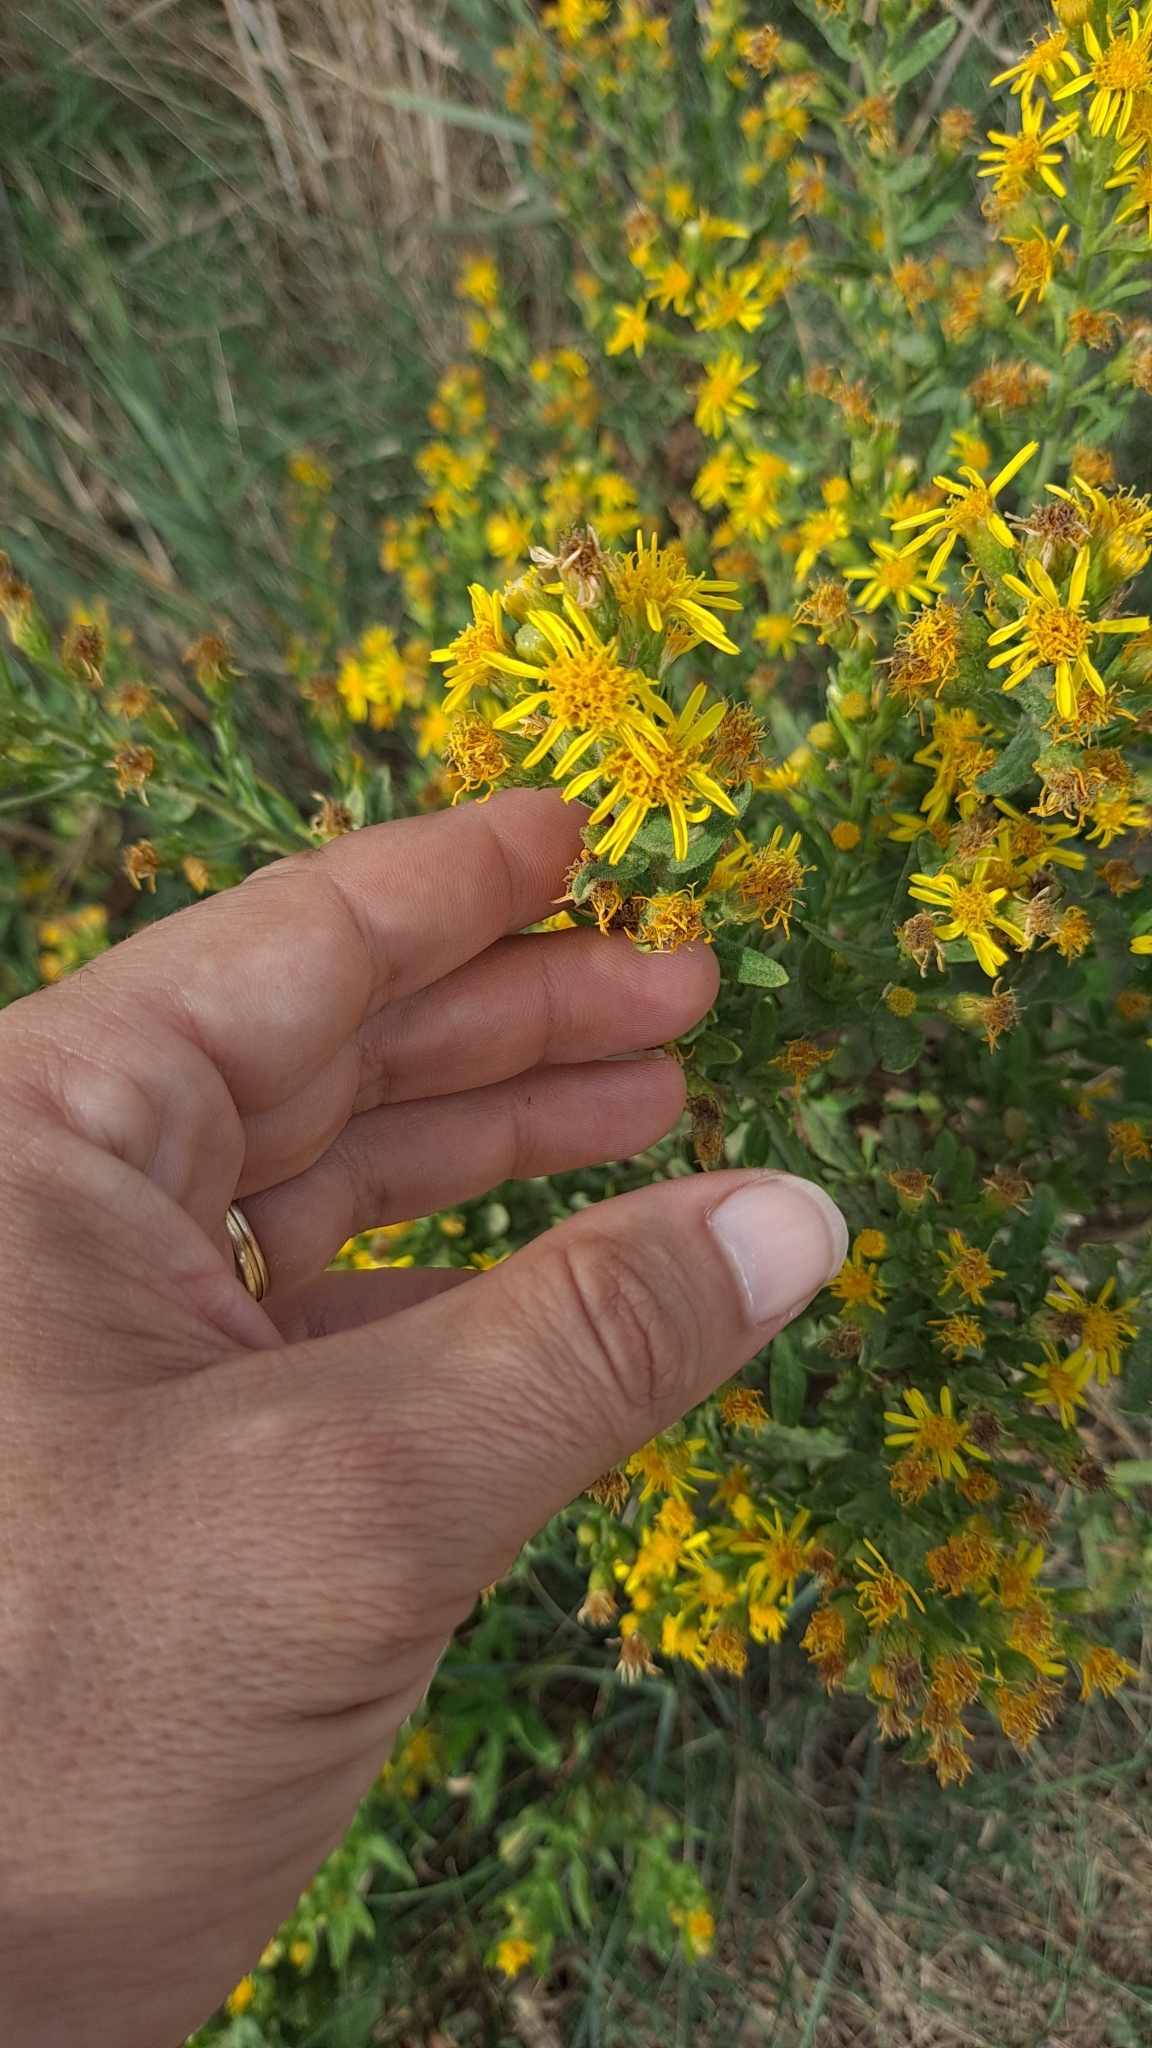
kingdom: Plantae
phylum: Tracheophyta
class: Magnoliopsida
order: Asterales
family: Asteraceae
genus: Dittrichia
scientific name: Dittrichia viscosa
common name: Woody fleabane
